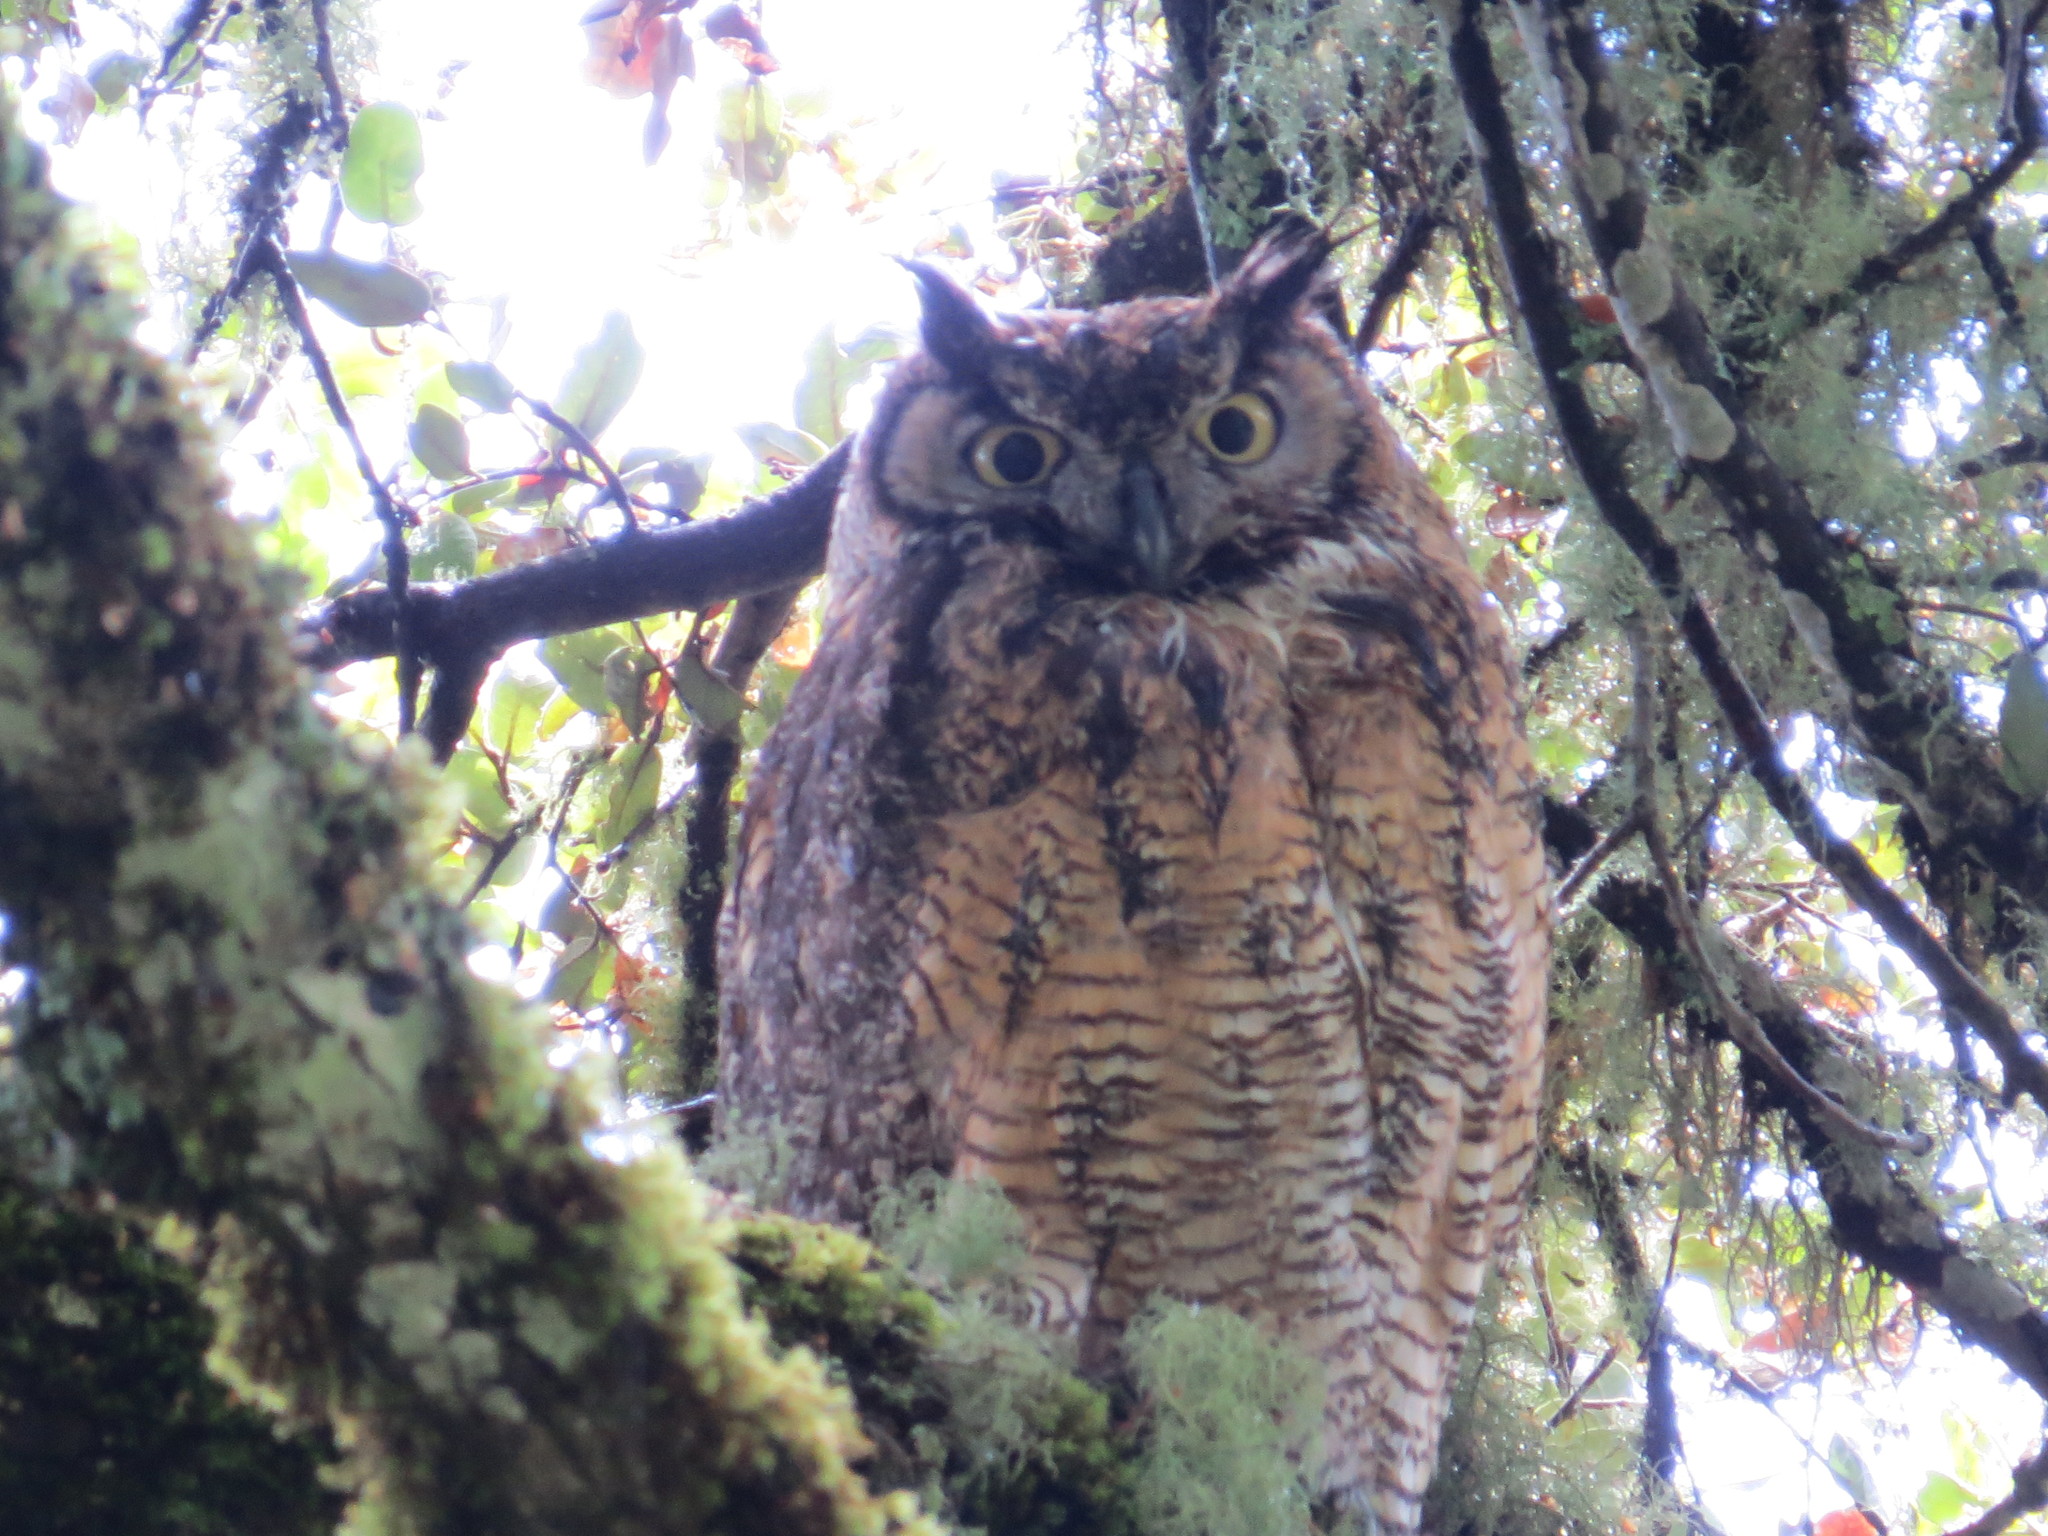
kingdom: Animalia
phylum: Chordata
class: Aves
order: Strigiformes
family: Strigidae
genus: Bubo
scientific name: Bubo virginianus
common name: Great horned owl
